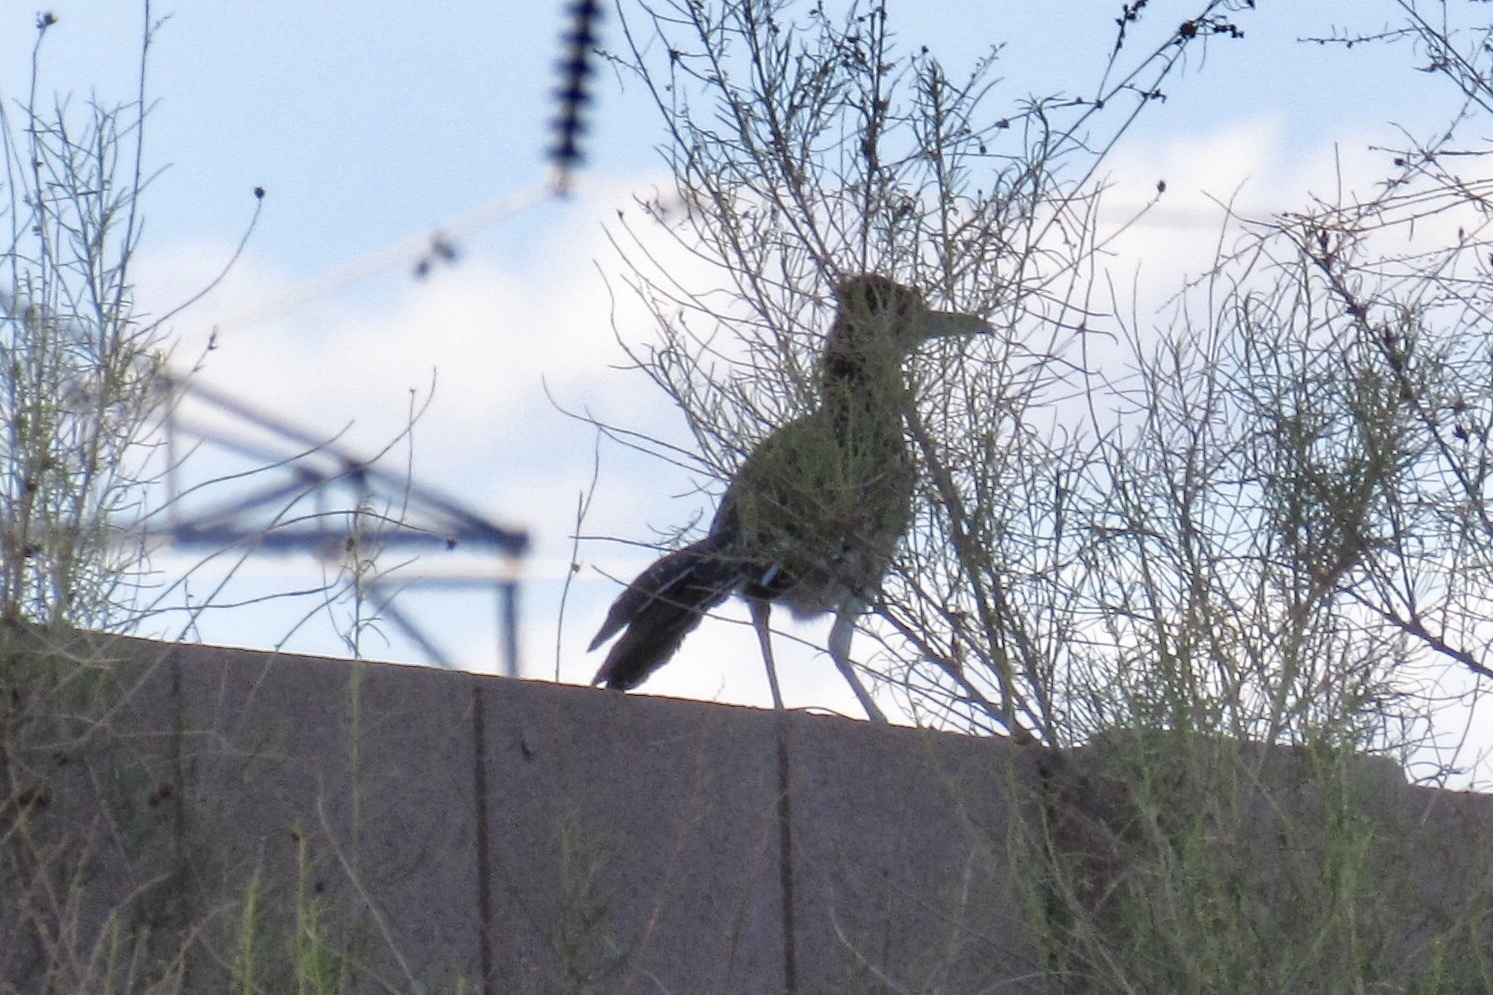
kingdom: Animalia
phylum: Chordata
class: Aves
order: Cuculiformes
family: Cuculidae
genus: Geococcyx
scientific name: Geococcyx californianus
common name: Greater roadrunner
